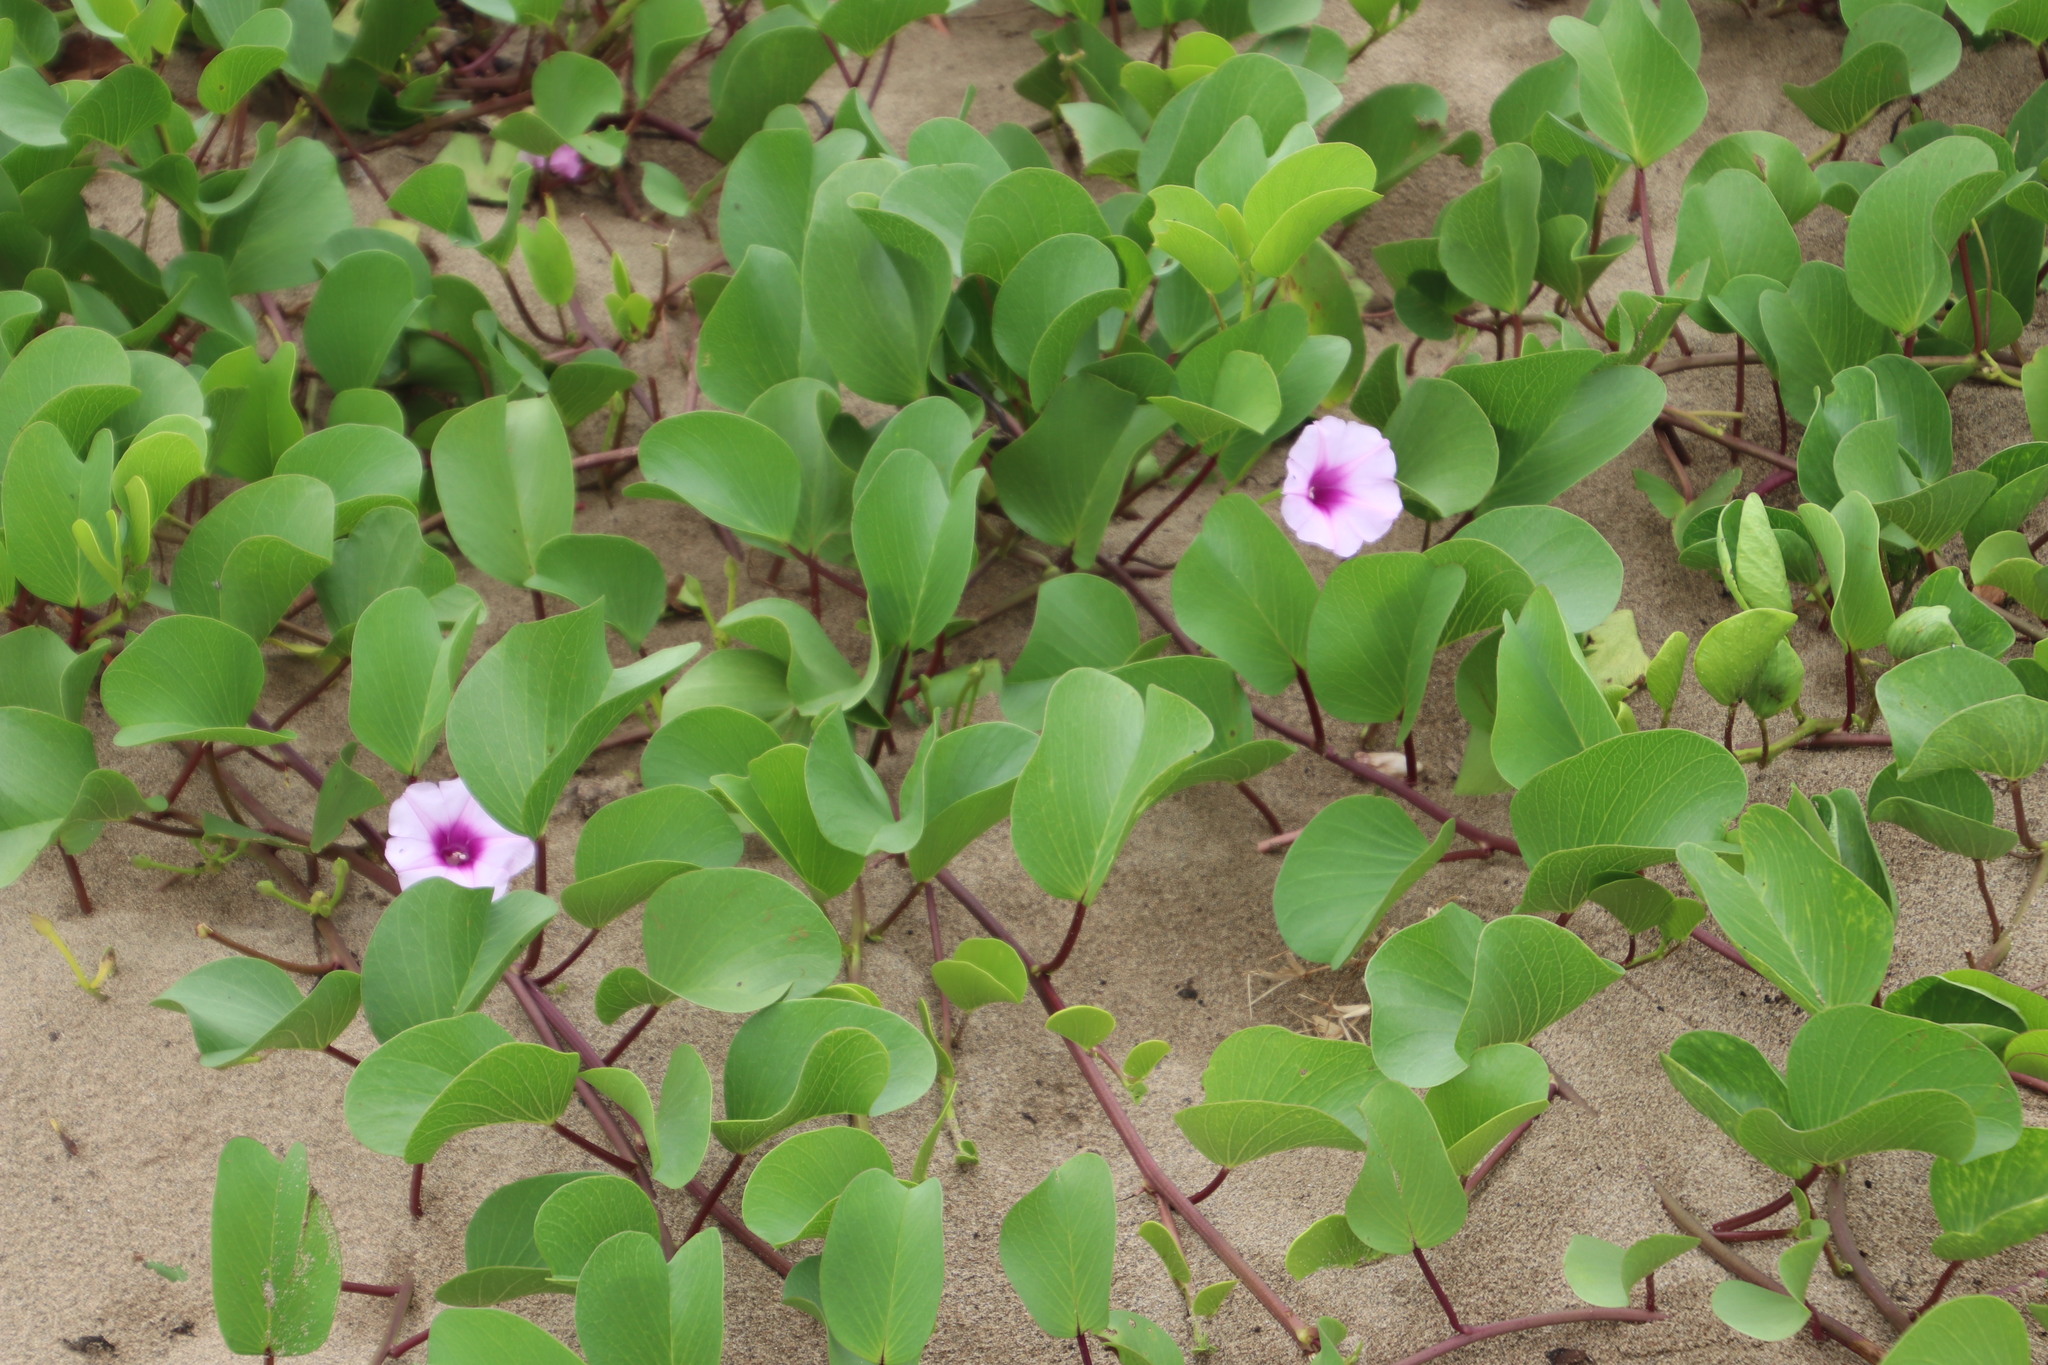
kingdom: Plantae
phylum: Tracheophyta
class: Magnoliopsida
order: Solanales
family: Convolvulaceae
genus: Ipomoea
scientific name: Ipomoea pes-caprae
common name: Beach morning glory
